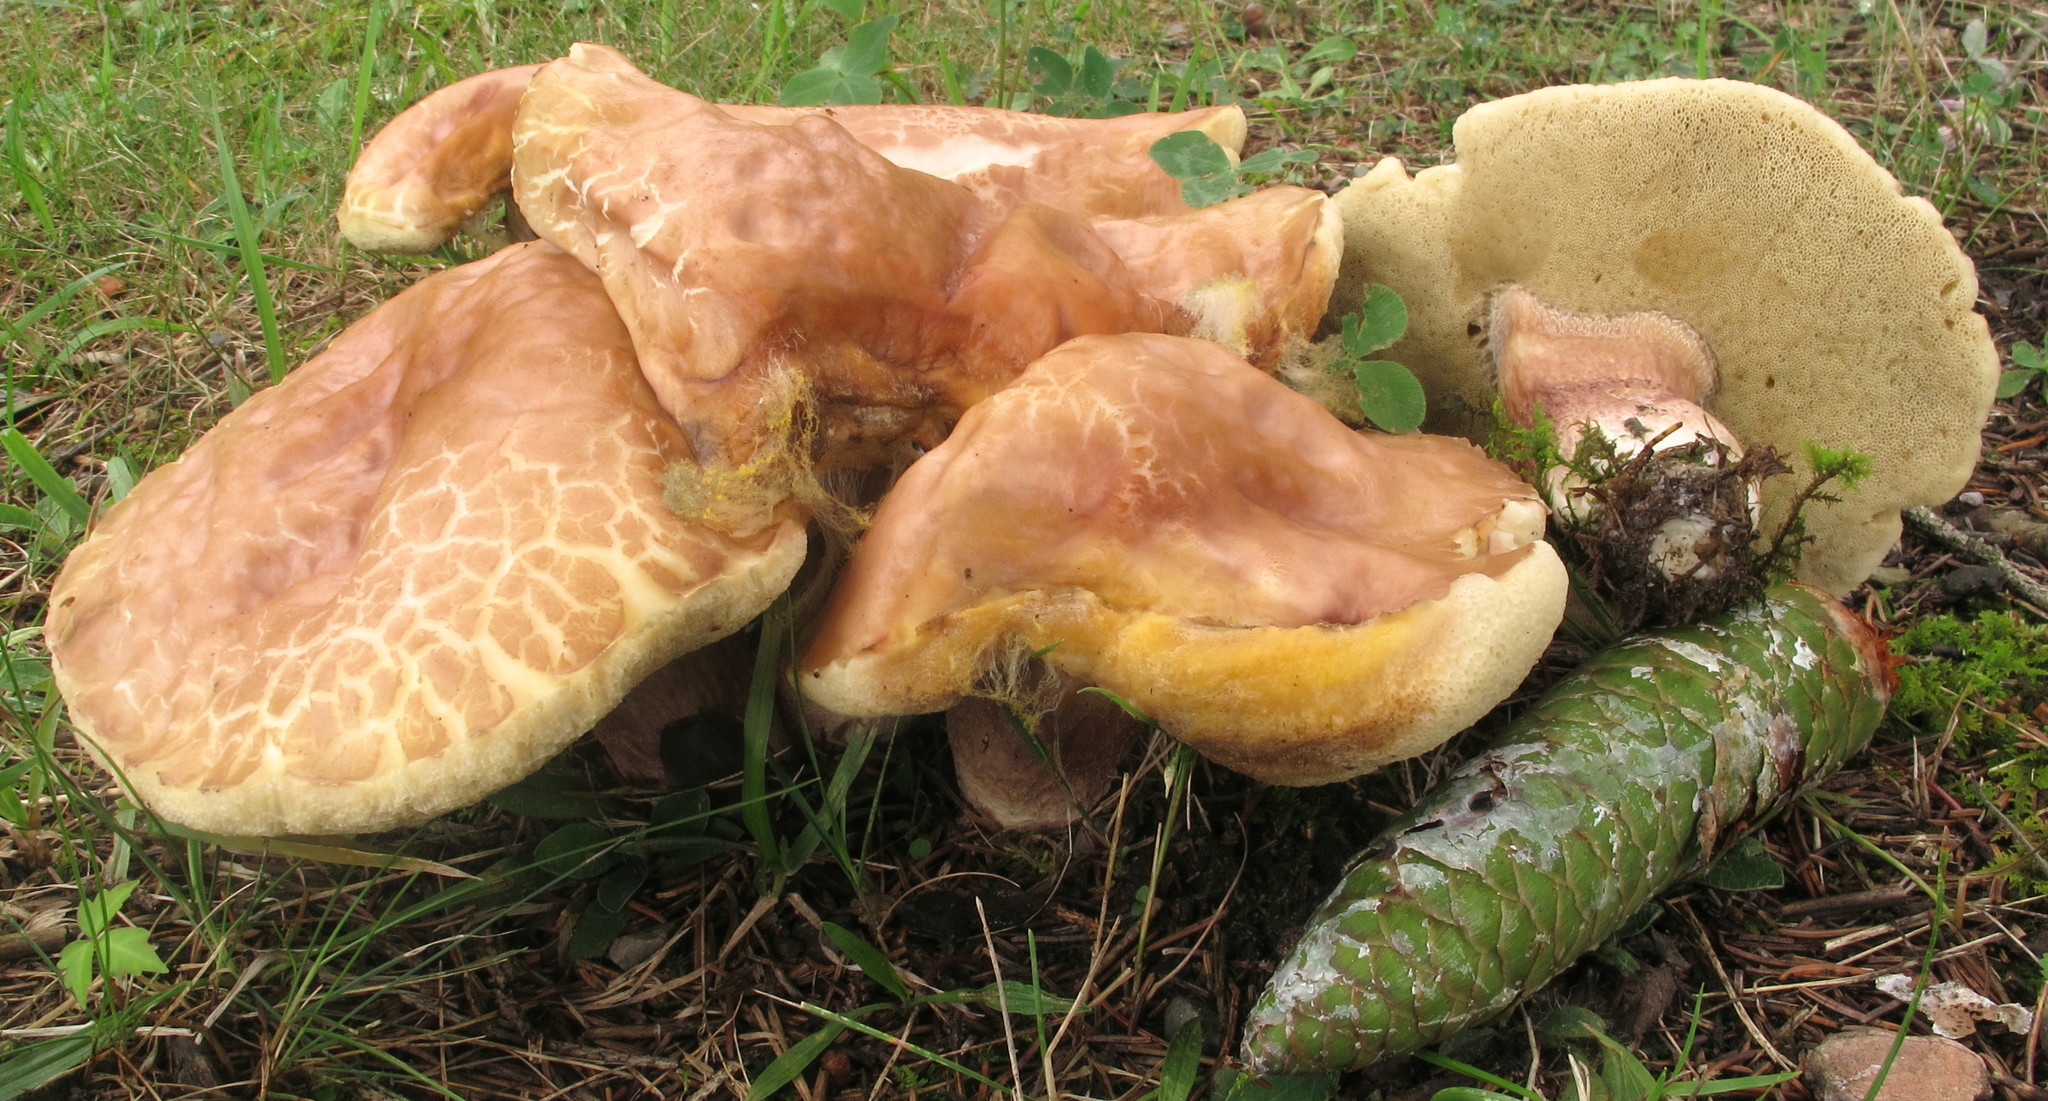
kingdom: Fungi
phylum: Basidiomycota
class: Agaricomycetes
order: Boletales
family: Boletaceae
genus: Xanthoconium
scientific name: Xanthoconium separans
